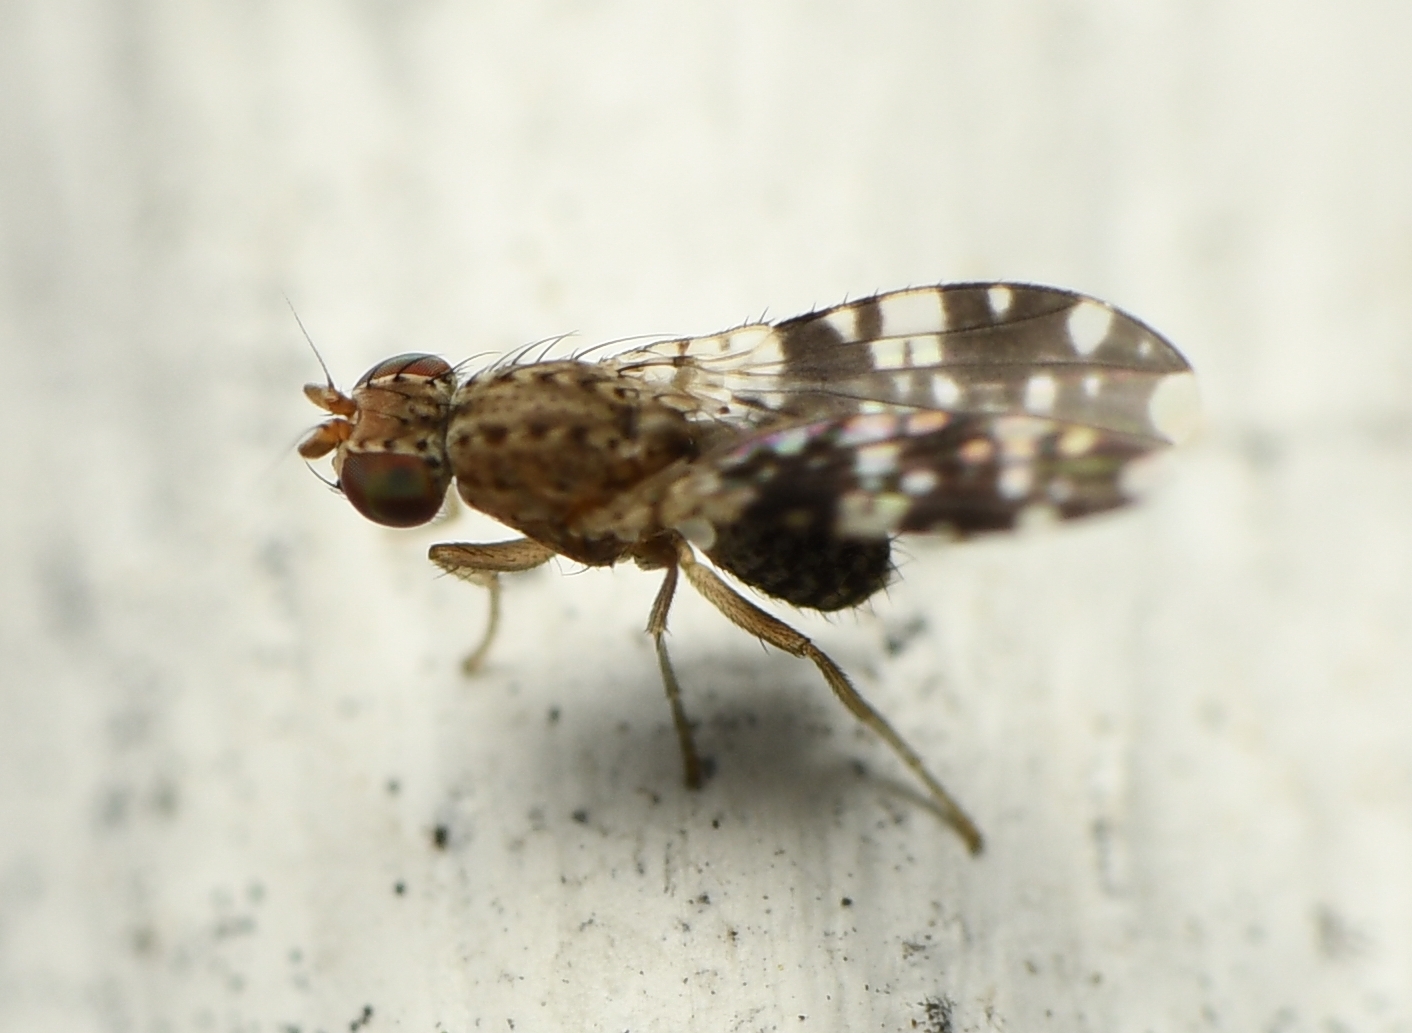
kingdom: Animalia
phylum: Arthropoda
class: Insecta
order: Diptera
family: Heleomyzidae
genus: Trixoscelis
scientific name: Trixoscelis ornata
